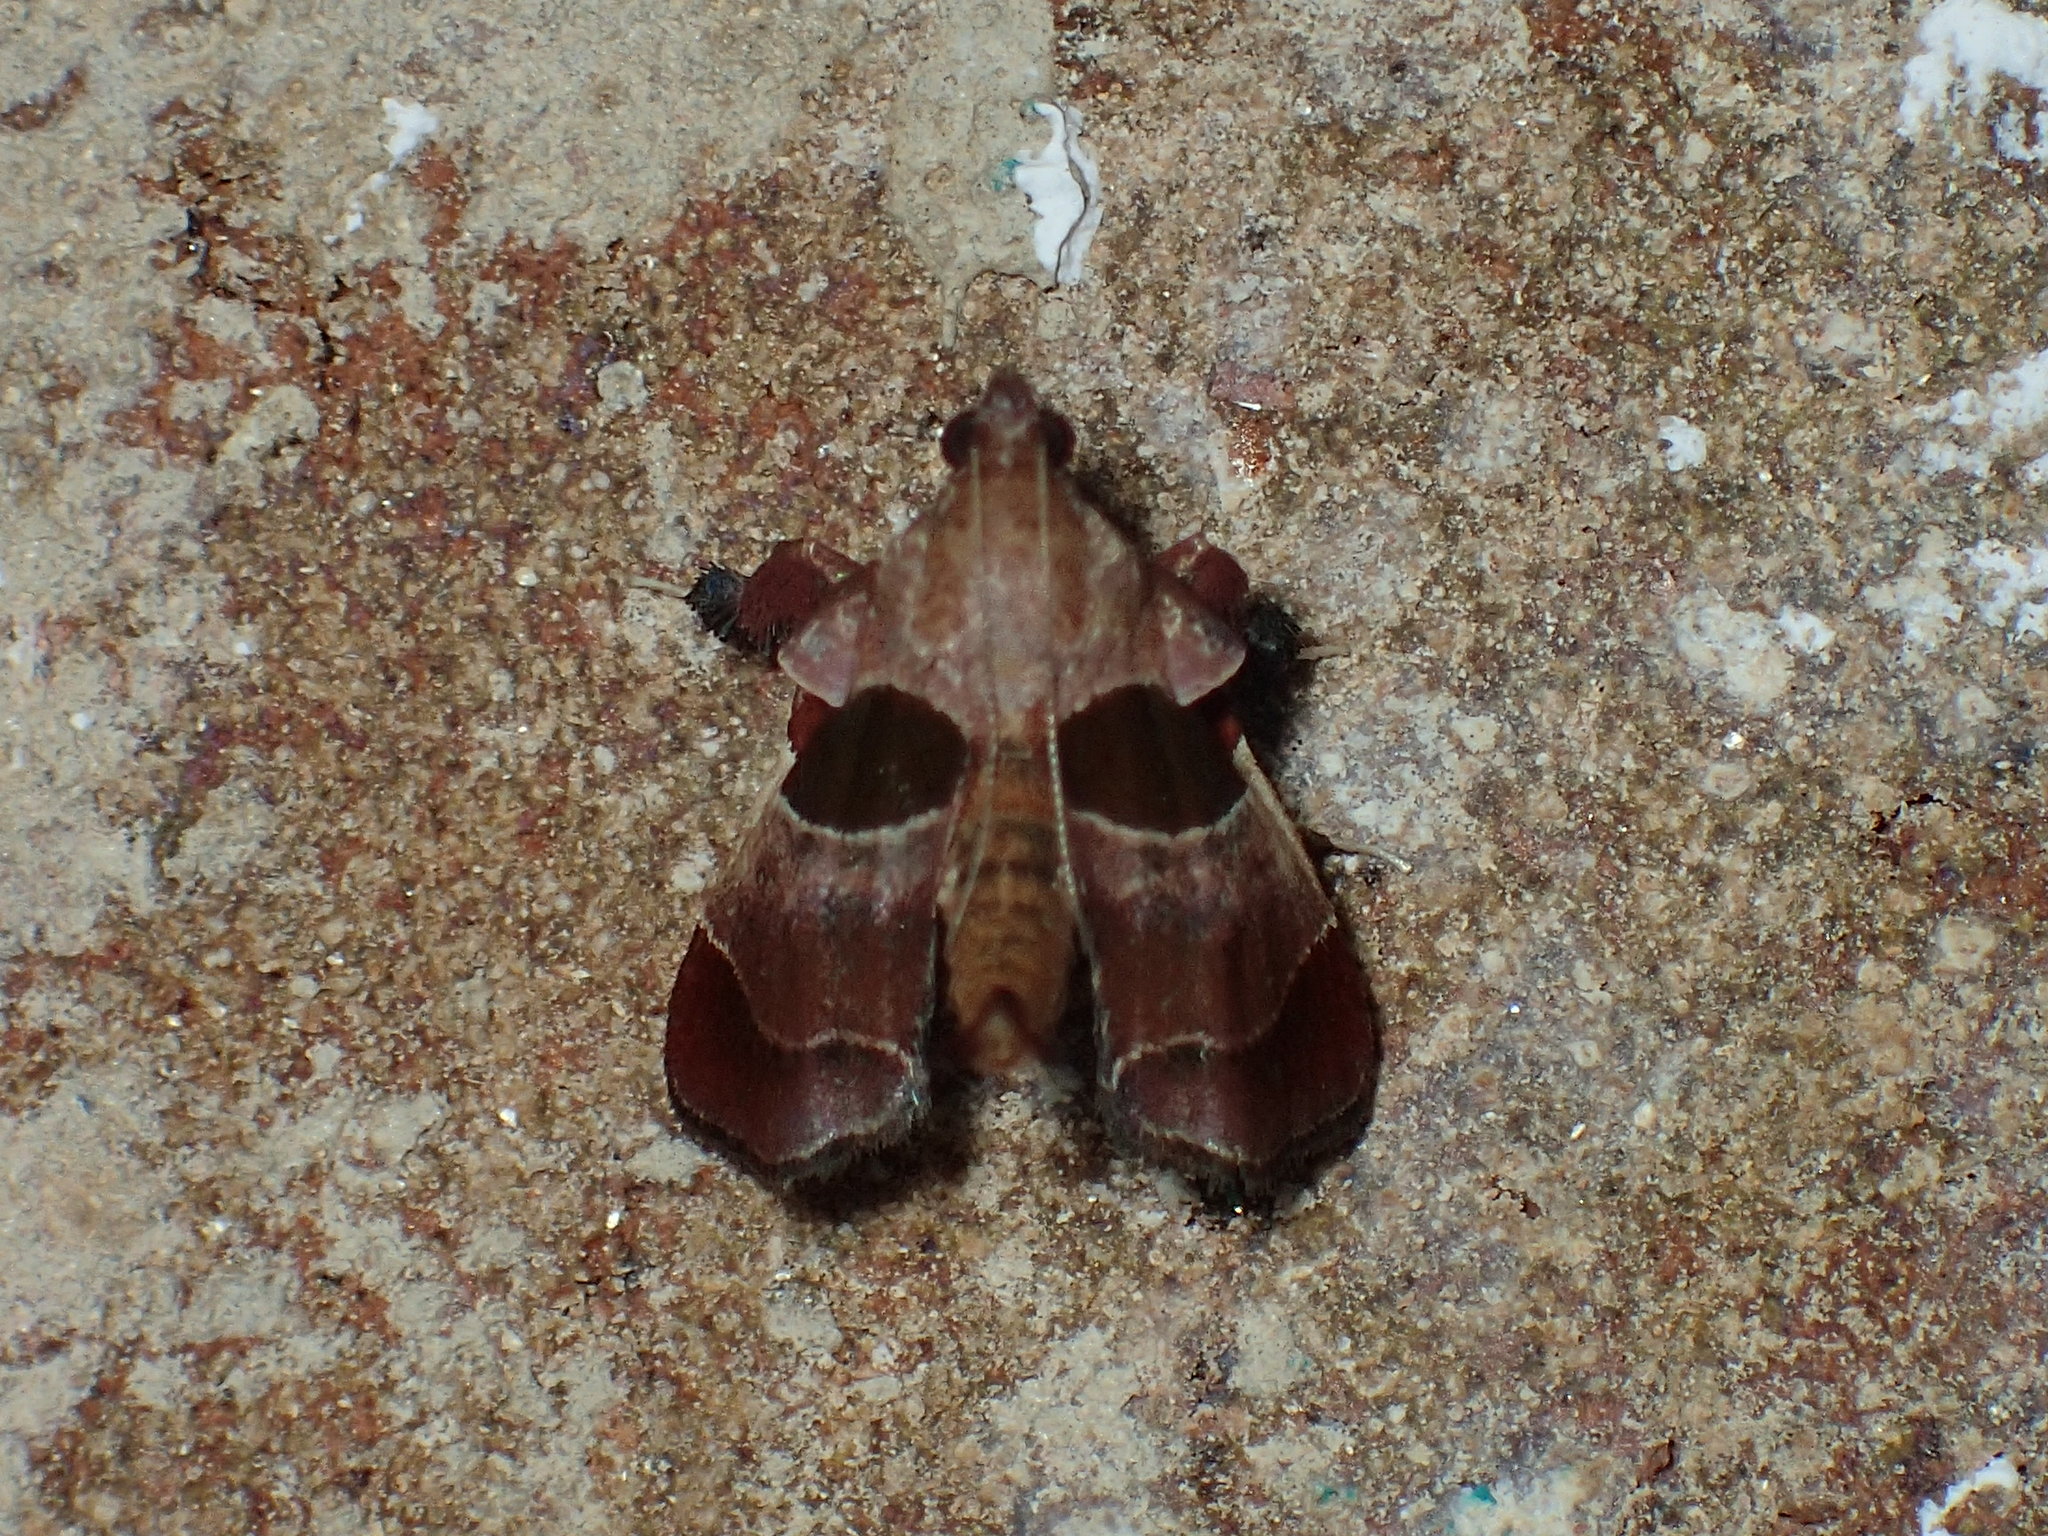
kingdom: Animalia
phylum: Arthropoda
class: Insecta
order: Lepidoptera
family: Pyralidae
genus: Tosale
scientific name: Tosale oviplagalis
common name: Dimorphic tosale moth
